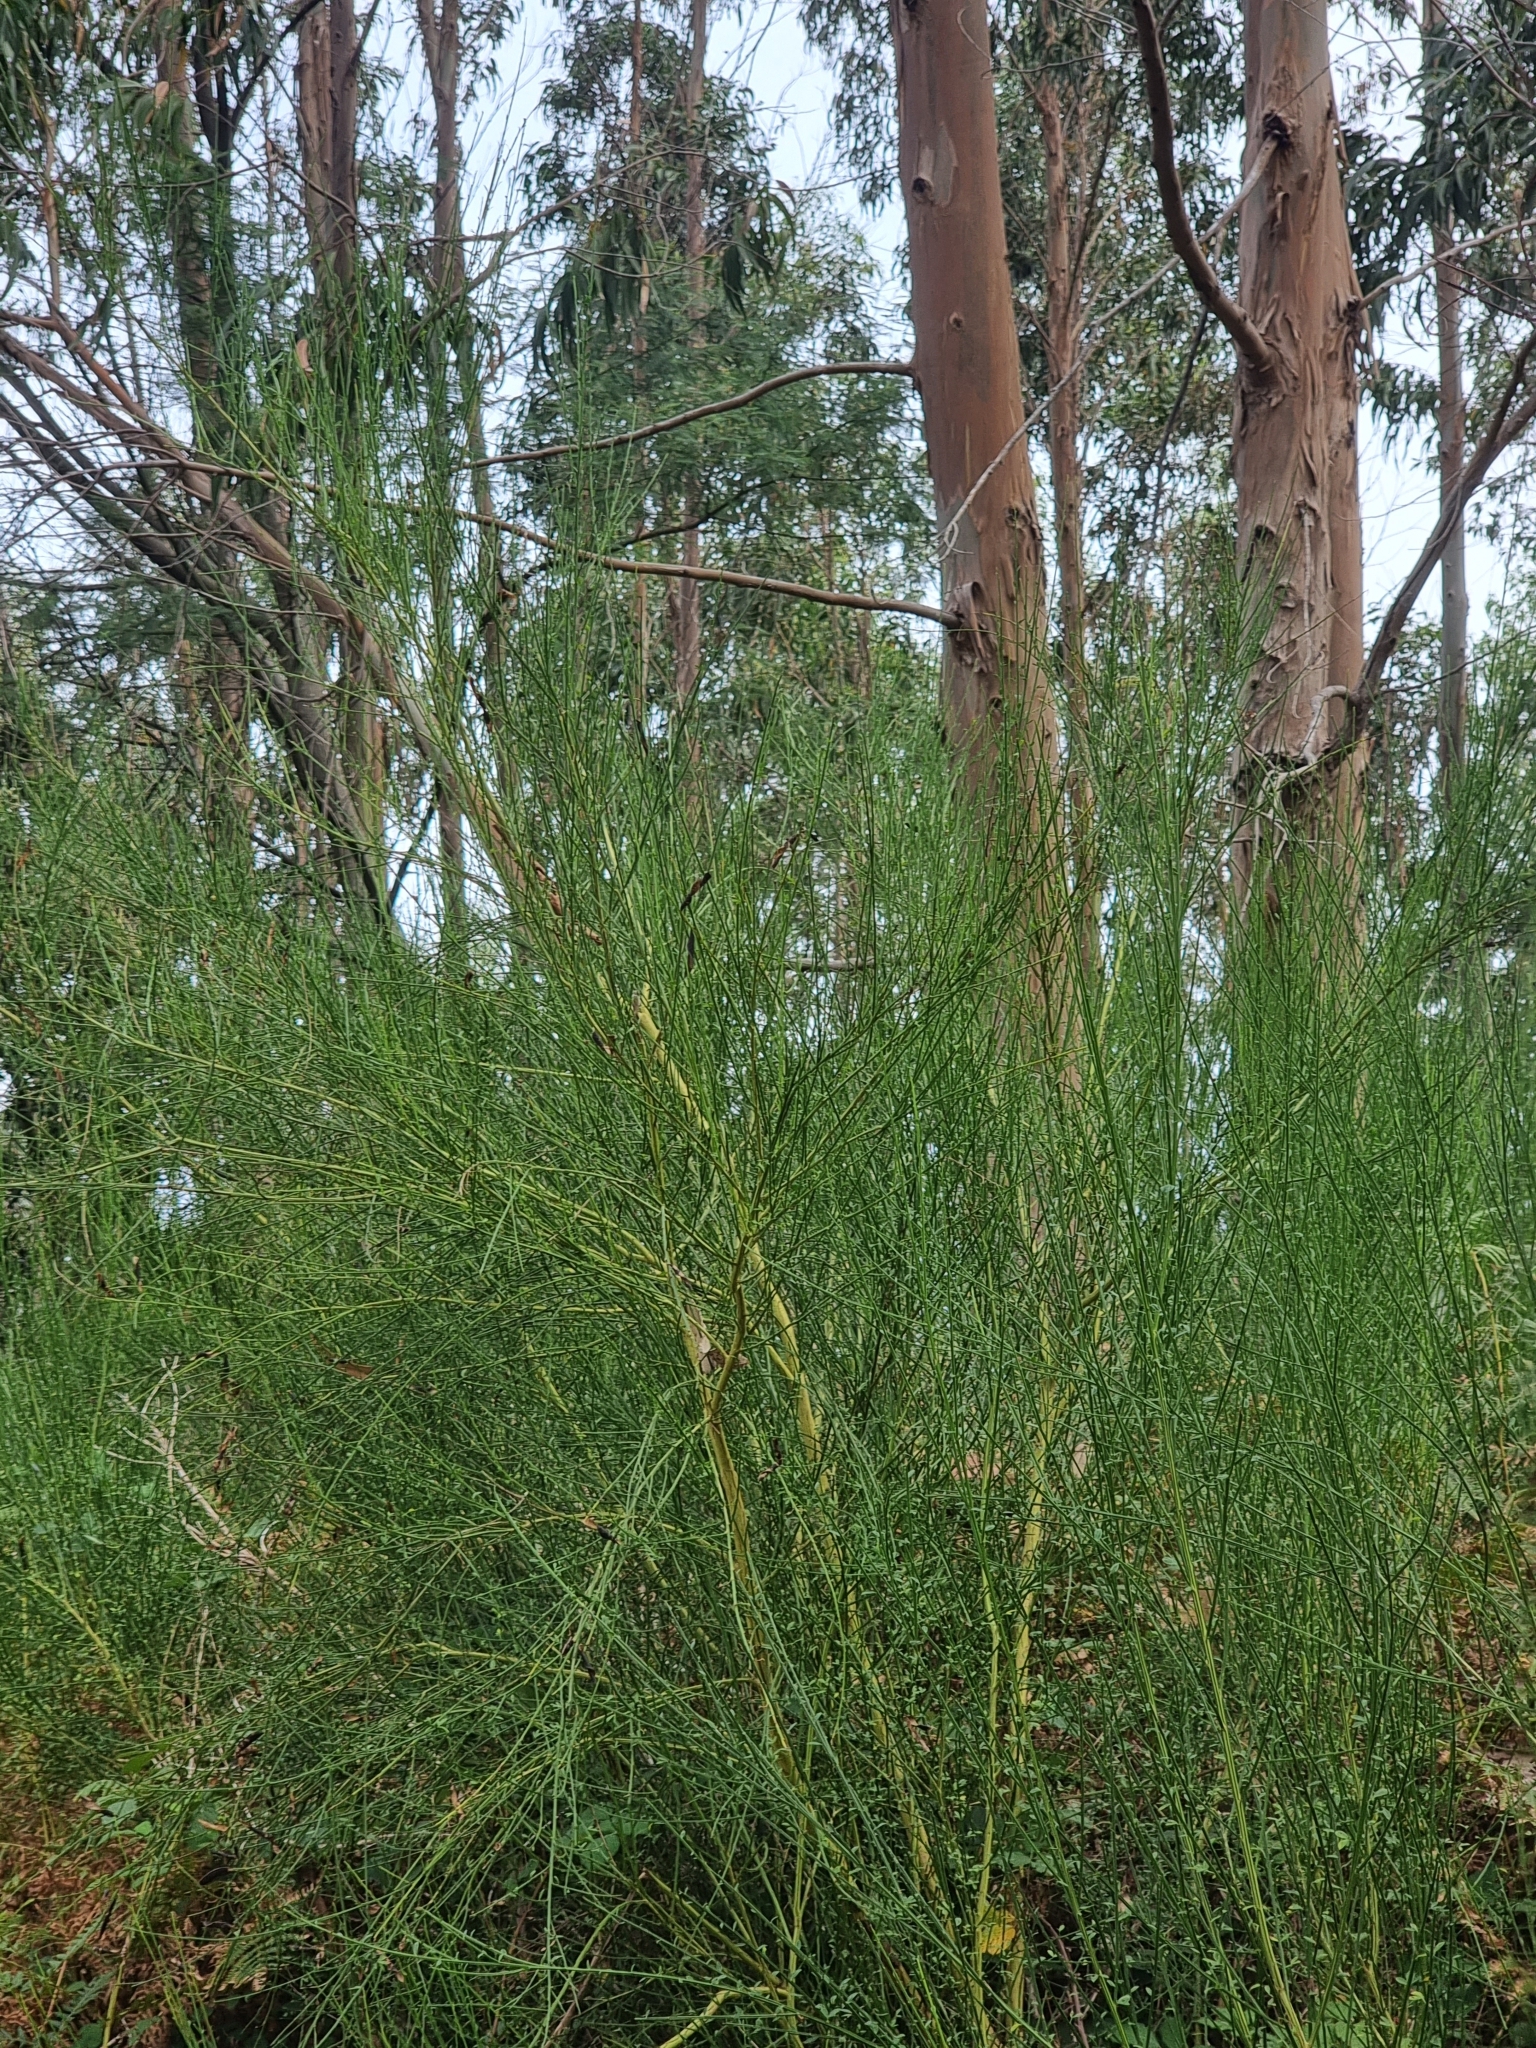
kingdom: Plantae
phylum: Tracheophyta
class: Magnoliopsida
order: Fabales
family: Fabaceae
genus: Cytisus
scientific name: Cytisus scoparius
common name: Scotch broom
